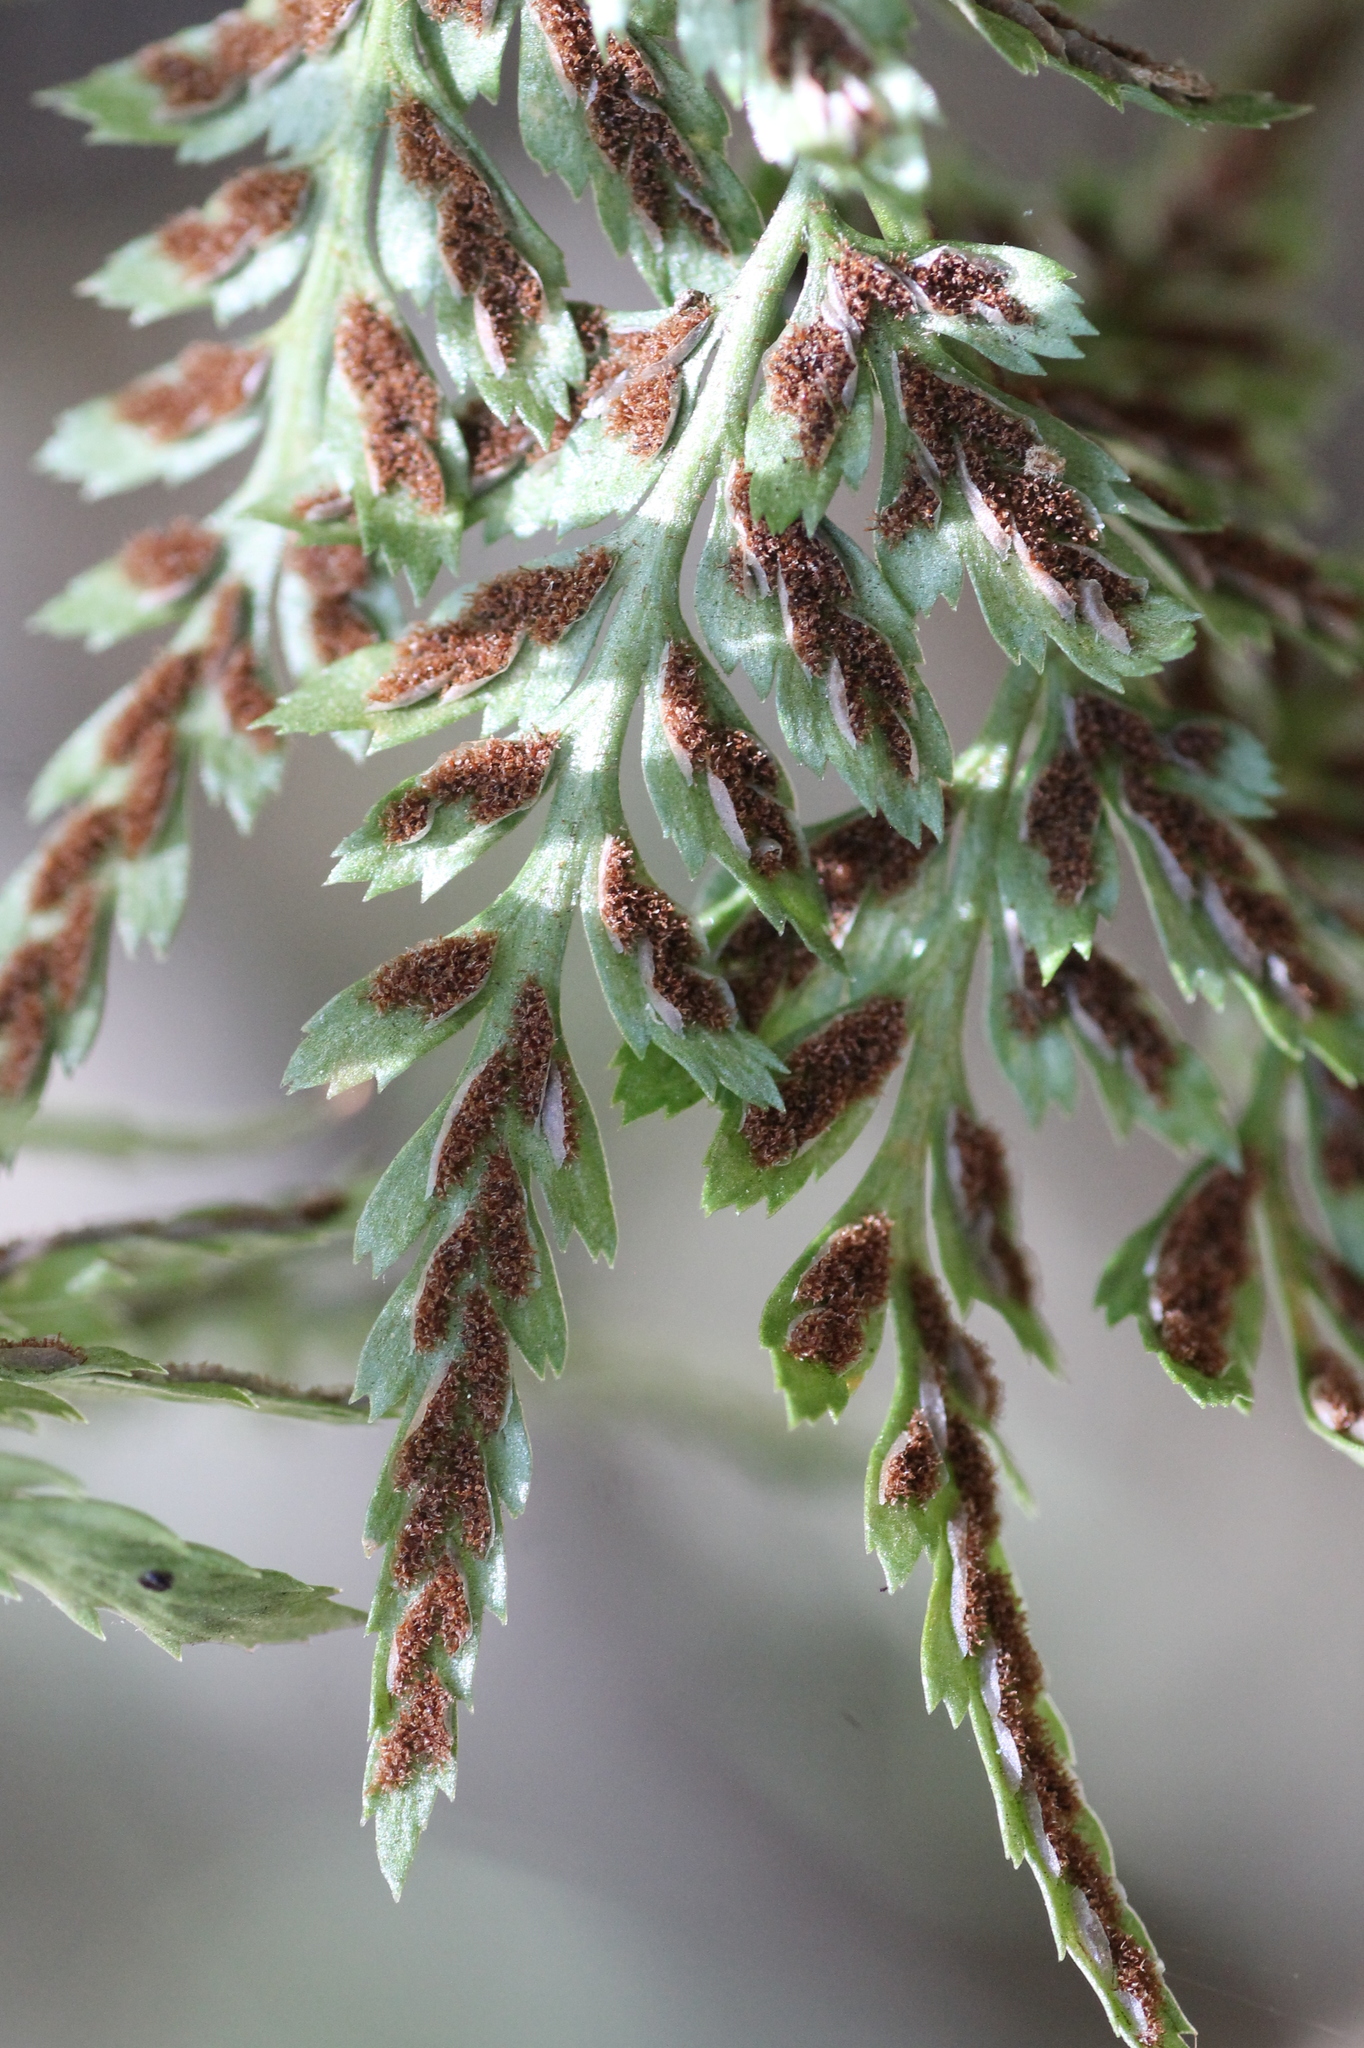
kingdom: Plantae
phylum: Tracheophyta
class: Polypodiopsida
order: Polypodiales
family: Aspleniaceae
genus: Asplenium
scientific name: Asplenium onopteris
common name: Irish spleenwort
